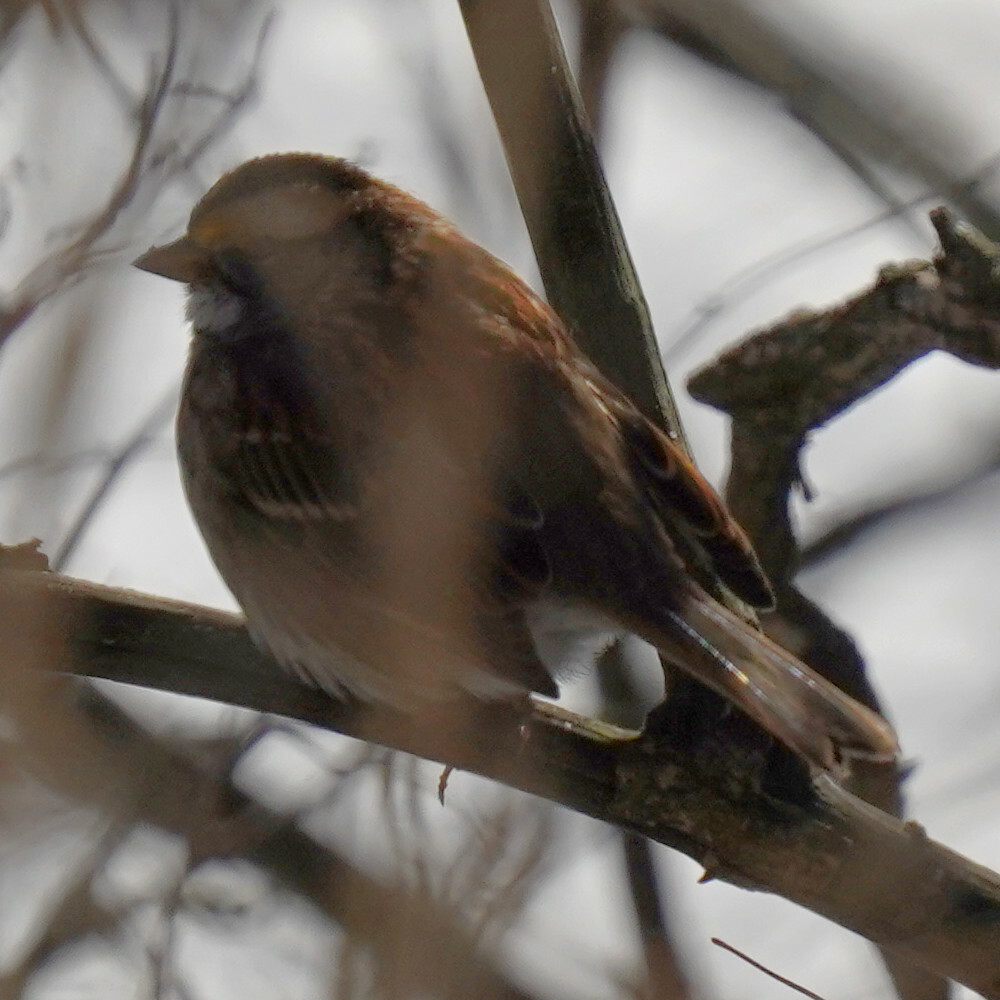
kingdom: Animalia
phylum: Chordata
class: Aves
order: Passeriformes
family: Passerellidae
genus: Zonotrichia
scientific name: Zonotrichia albicollis
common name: White-throated sparrow
